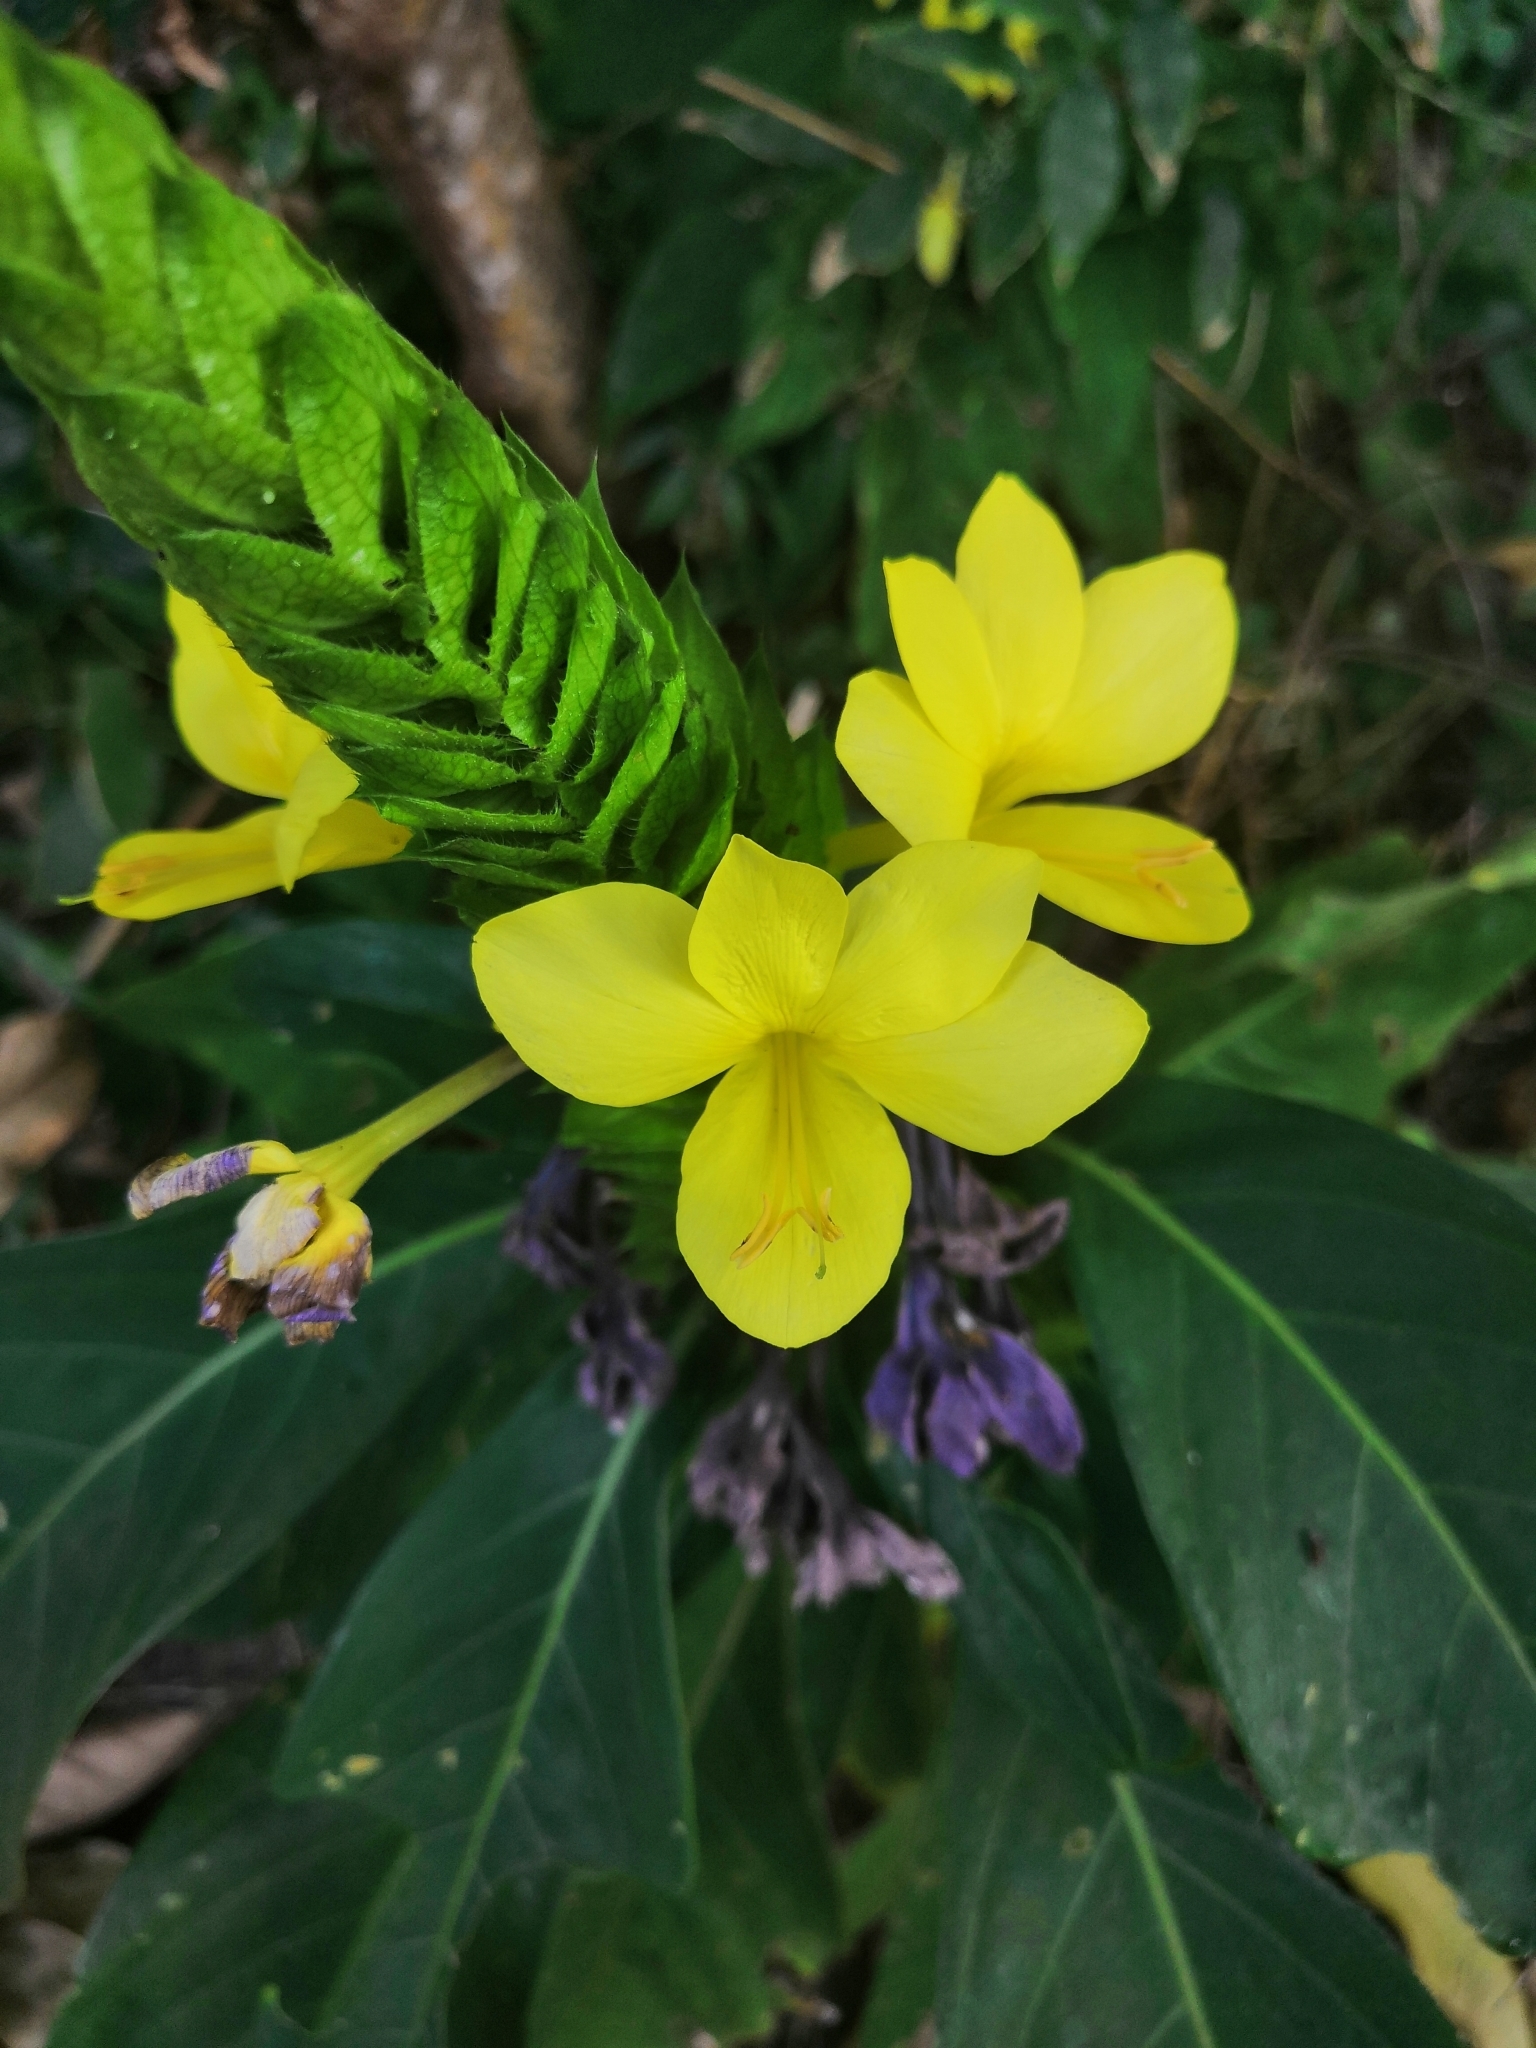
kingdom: Plantae
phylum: Tracheophyta
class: Magnoliopsida
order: Lamiales
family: Acanthaceae
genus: Barleria
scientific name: Barleria oenotheroides
